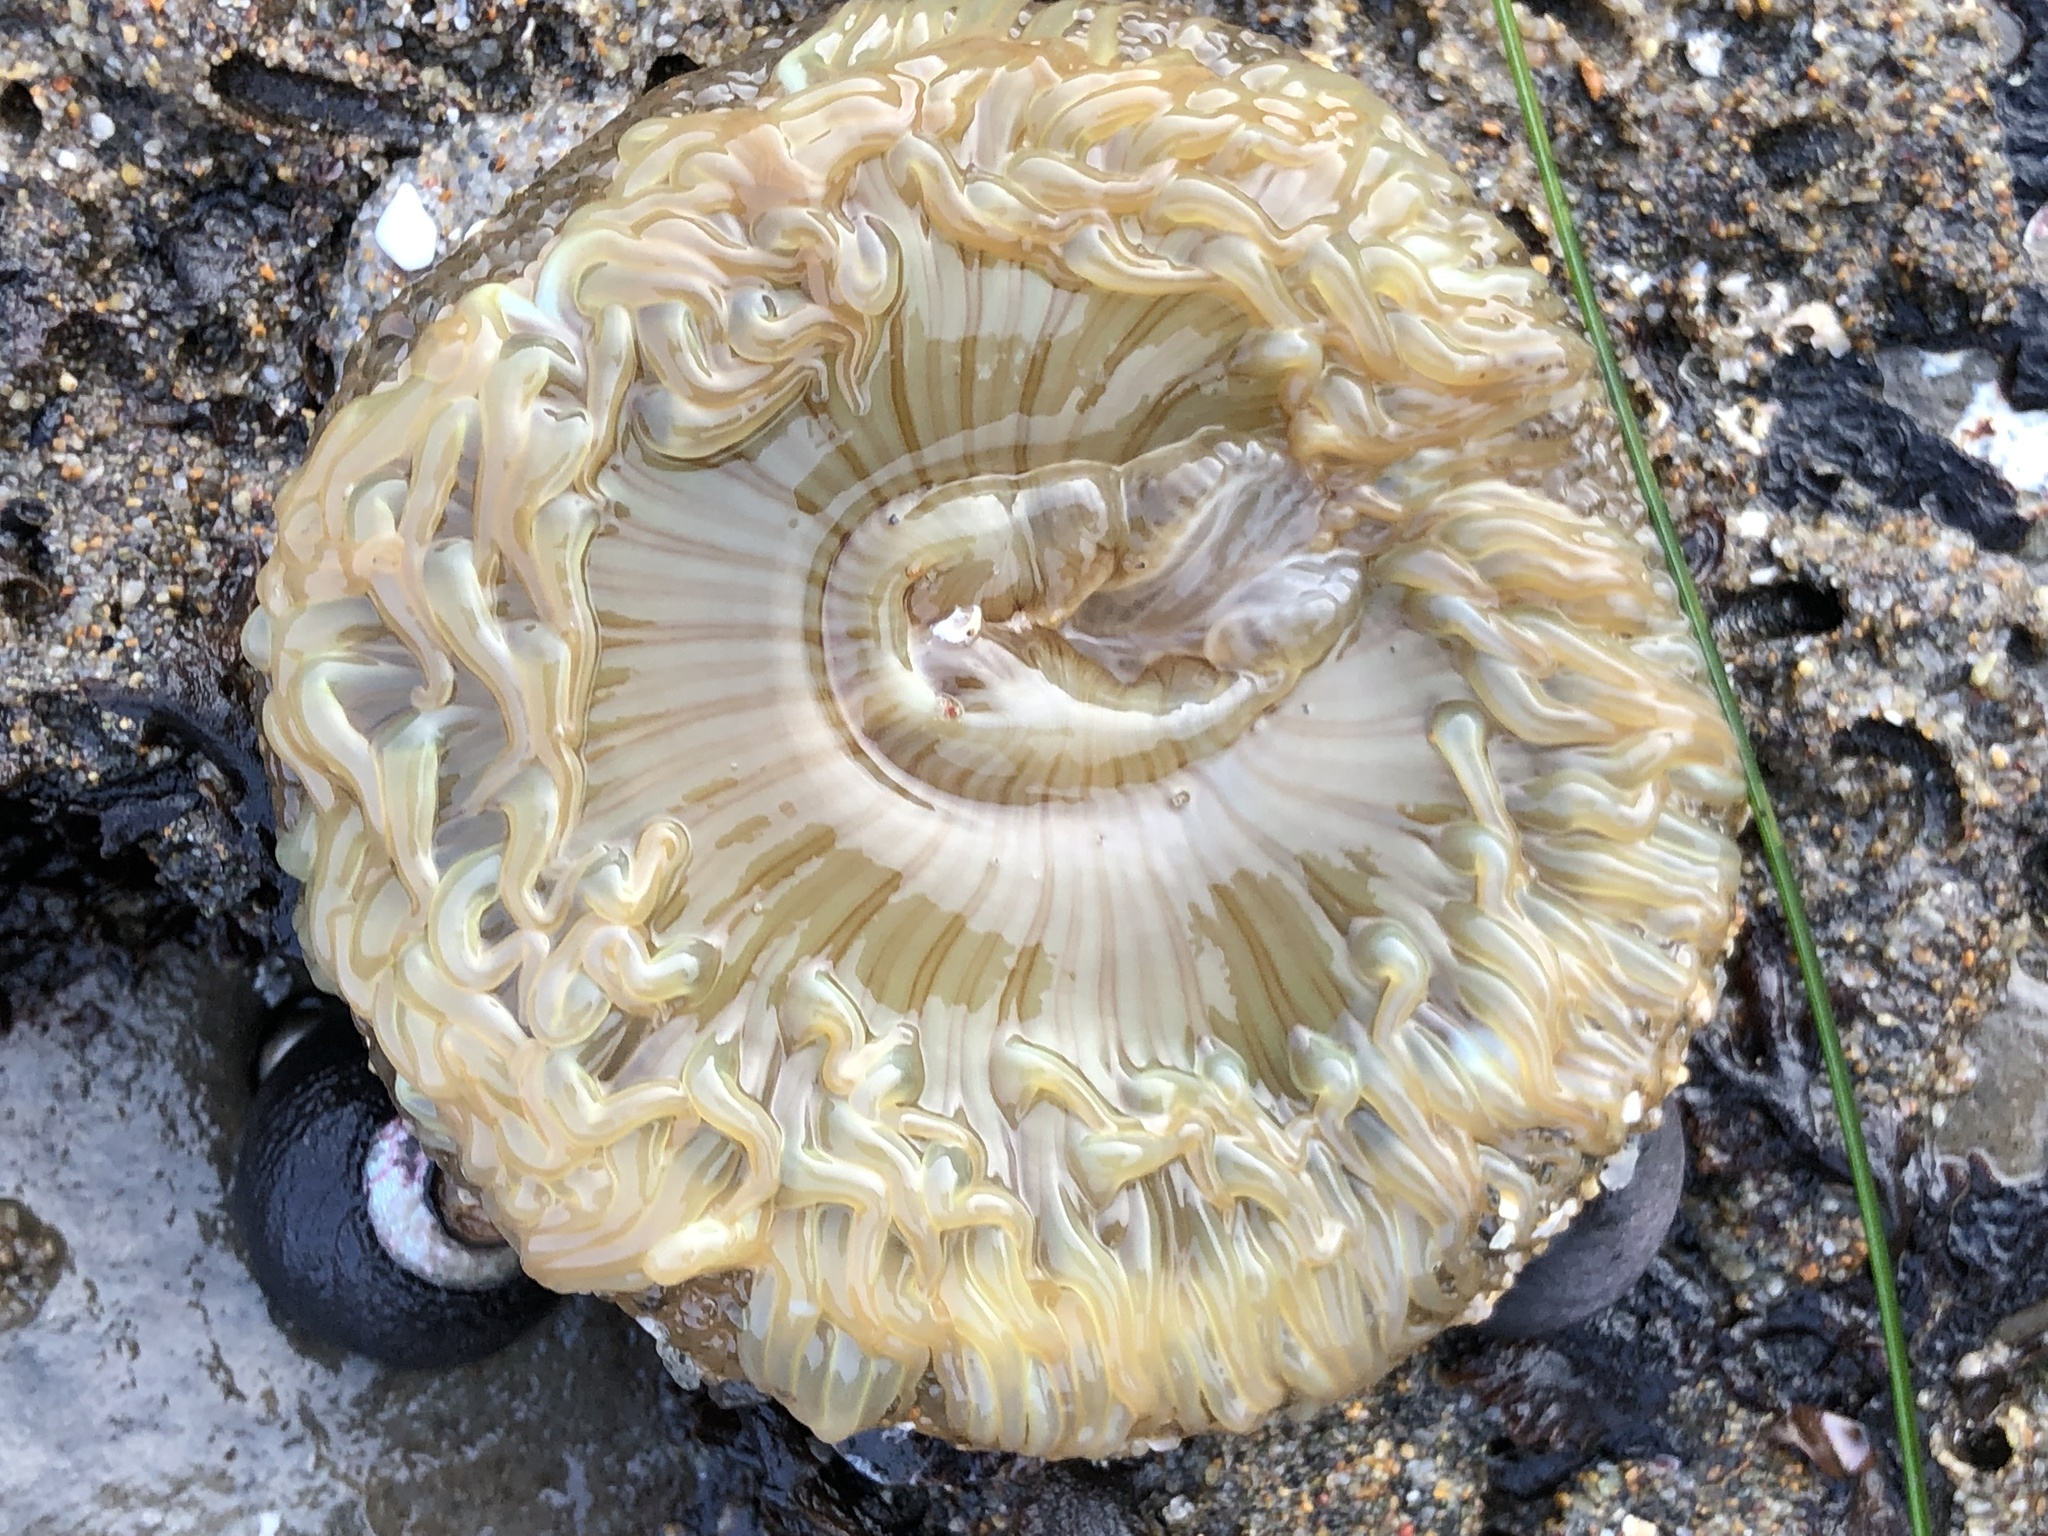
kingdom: Animalia
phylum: Cnidaria
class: Anthozoa
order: Actiniaria
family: Actiniidae
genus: Anthopleura
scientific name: Anthopleura sola
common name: Sun anemone
